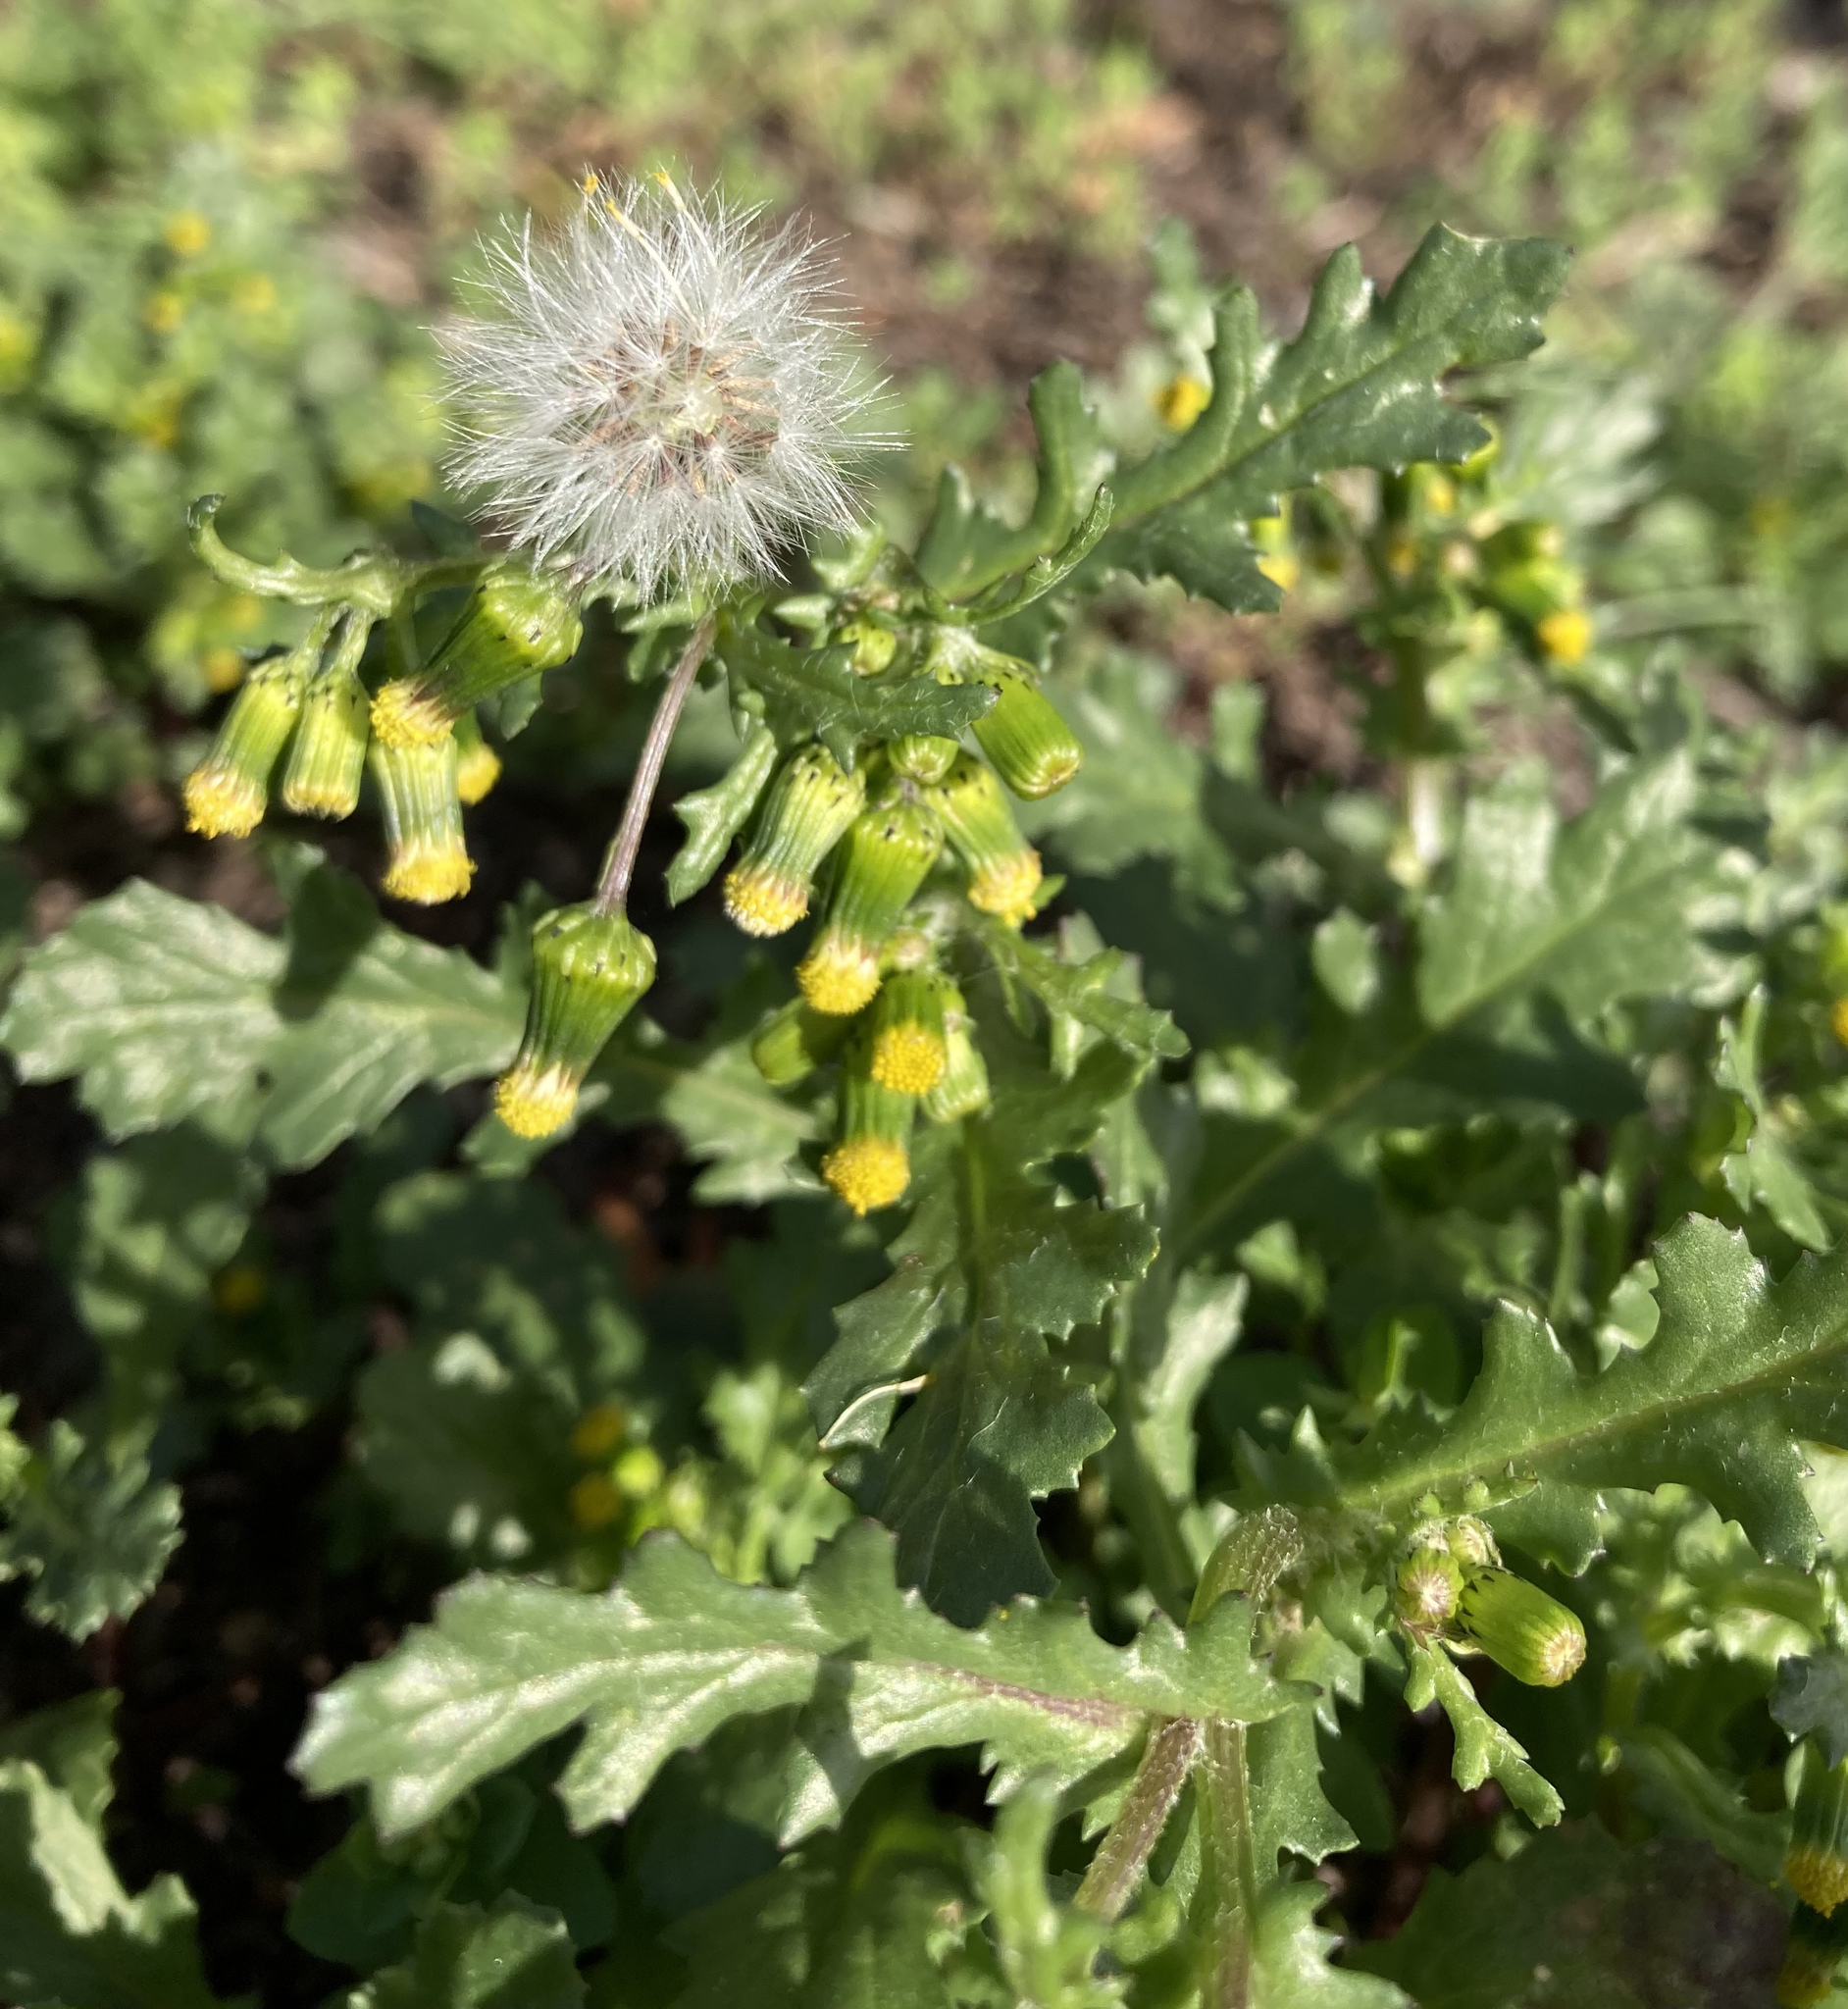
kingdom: Plantae
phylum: Tracheophyta
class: Magnoliopsida
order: Asterales
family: Asteraceae
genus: Senecio
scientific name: Senecio vulgaris
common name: Old-man-in-the-spring
